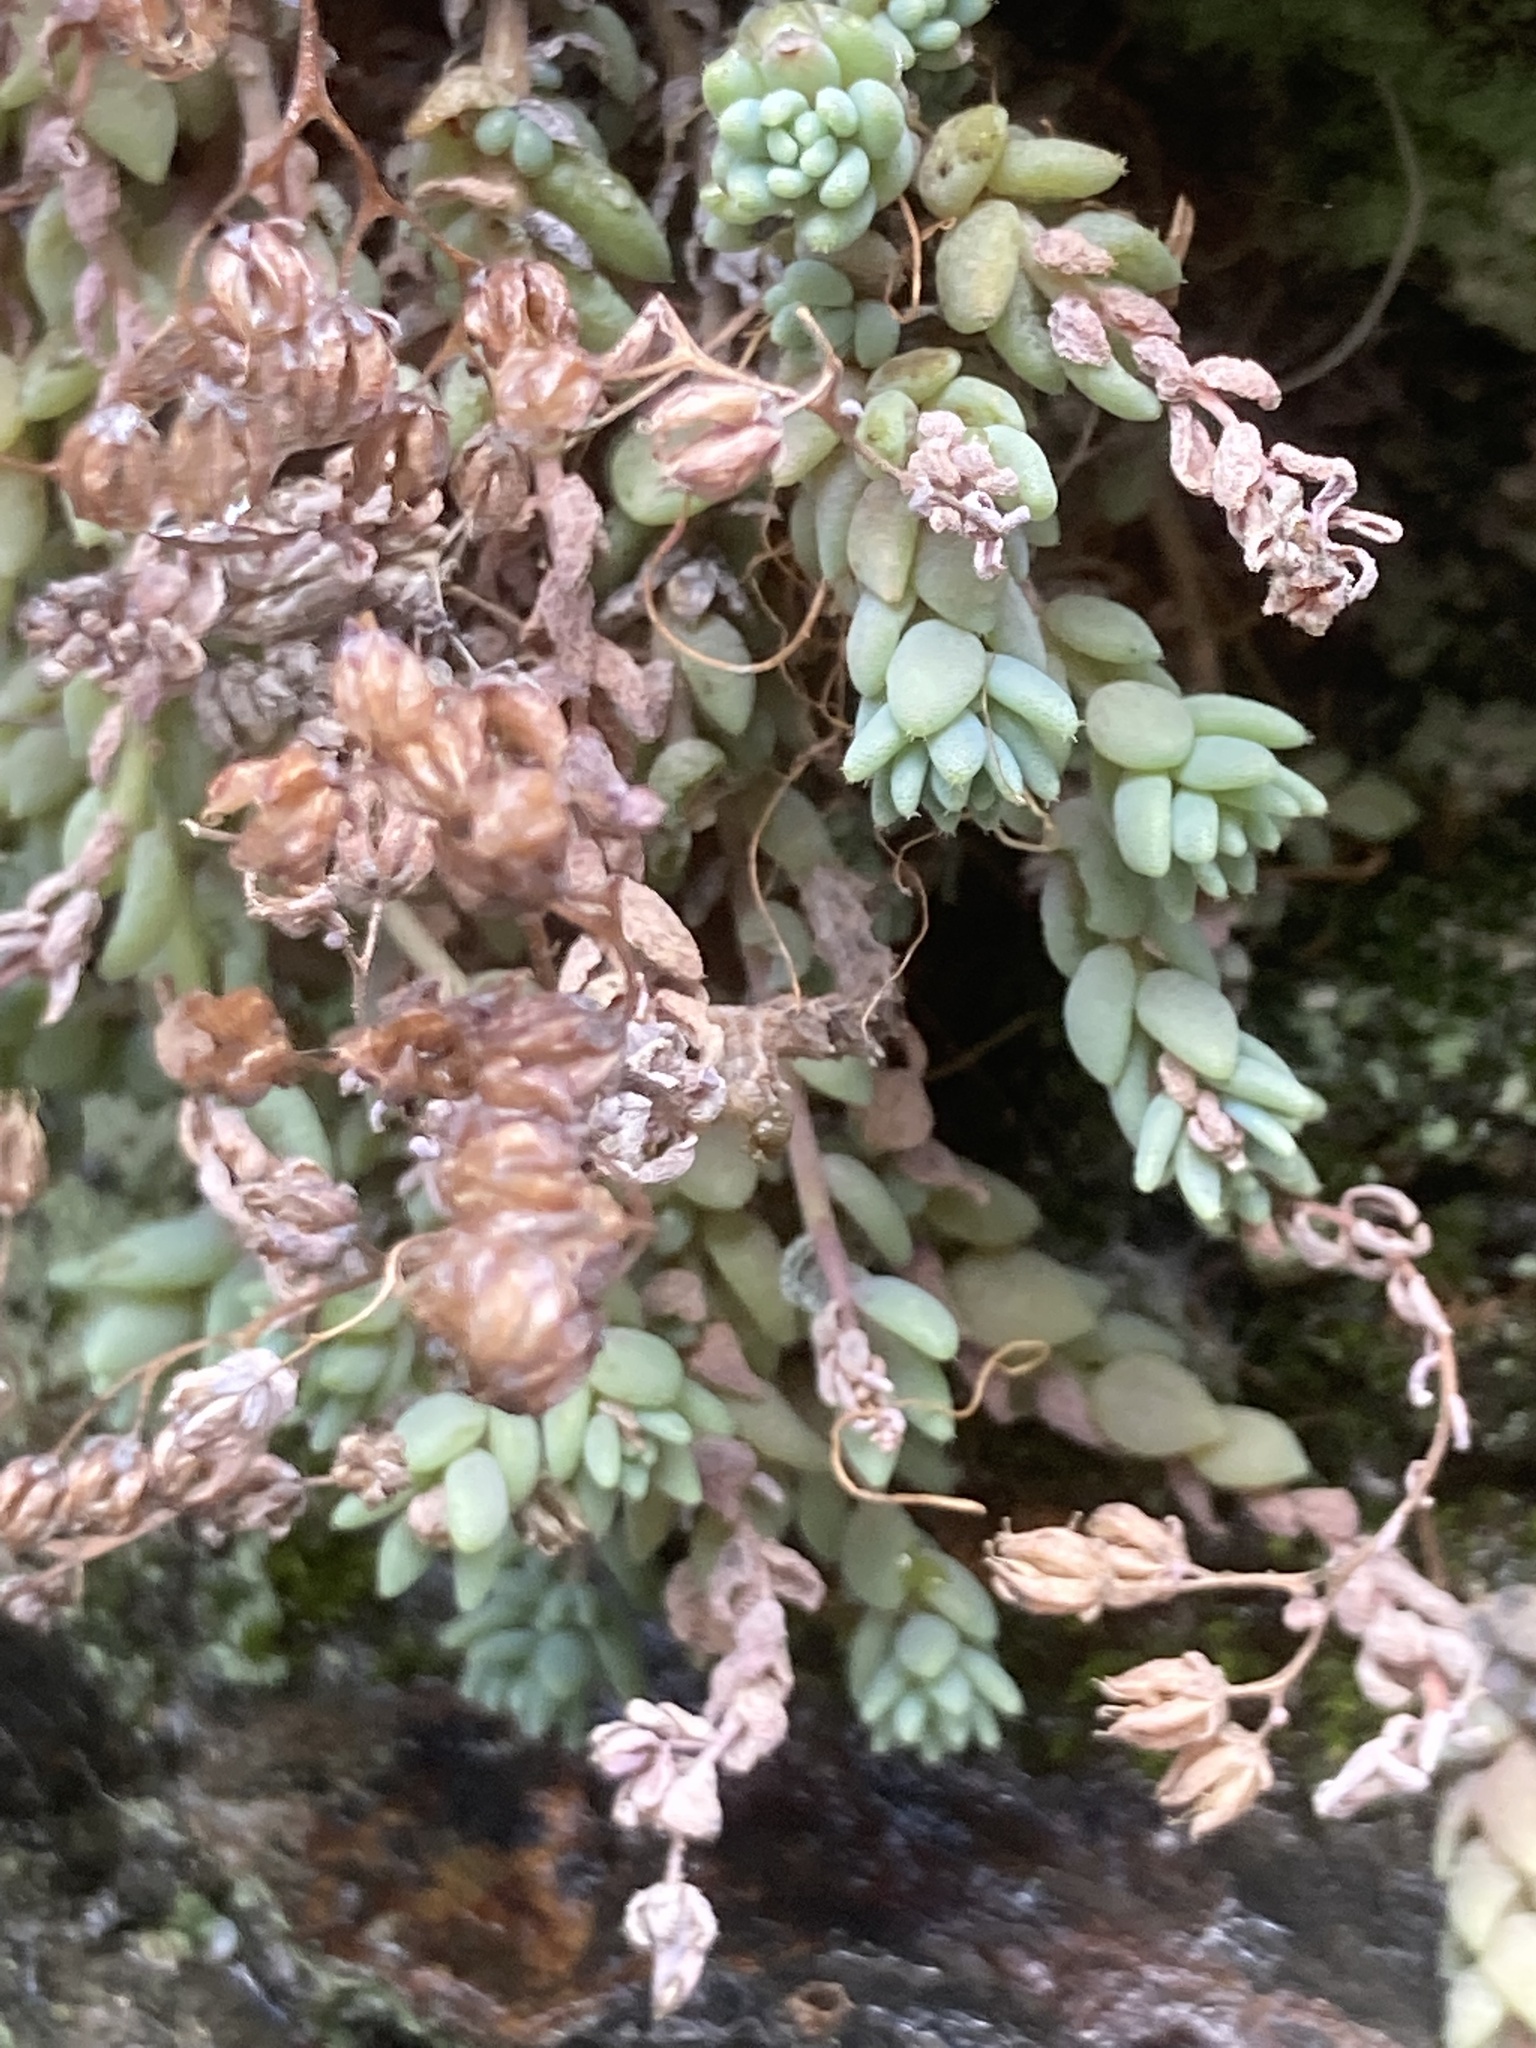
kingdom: Plantae
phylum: Tracheophyta
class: Magnoliopsida
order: Saxifragales
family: Crassulaceae
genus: Sedum
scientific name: Sedum dasyphyllum
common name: Thick-leaf stonecrop
